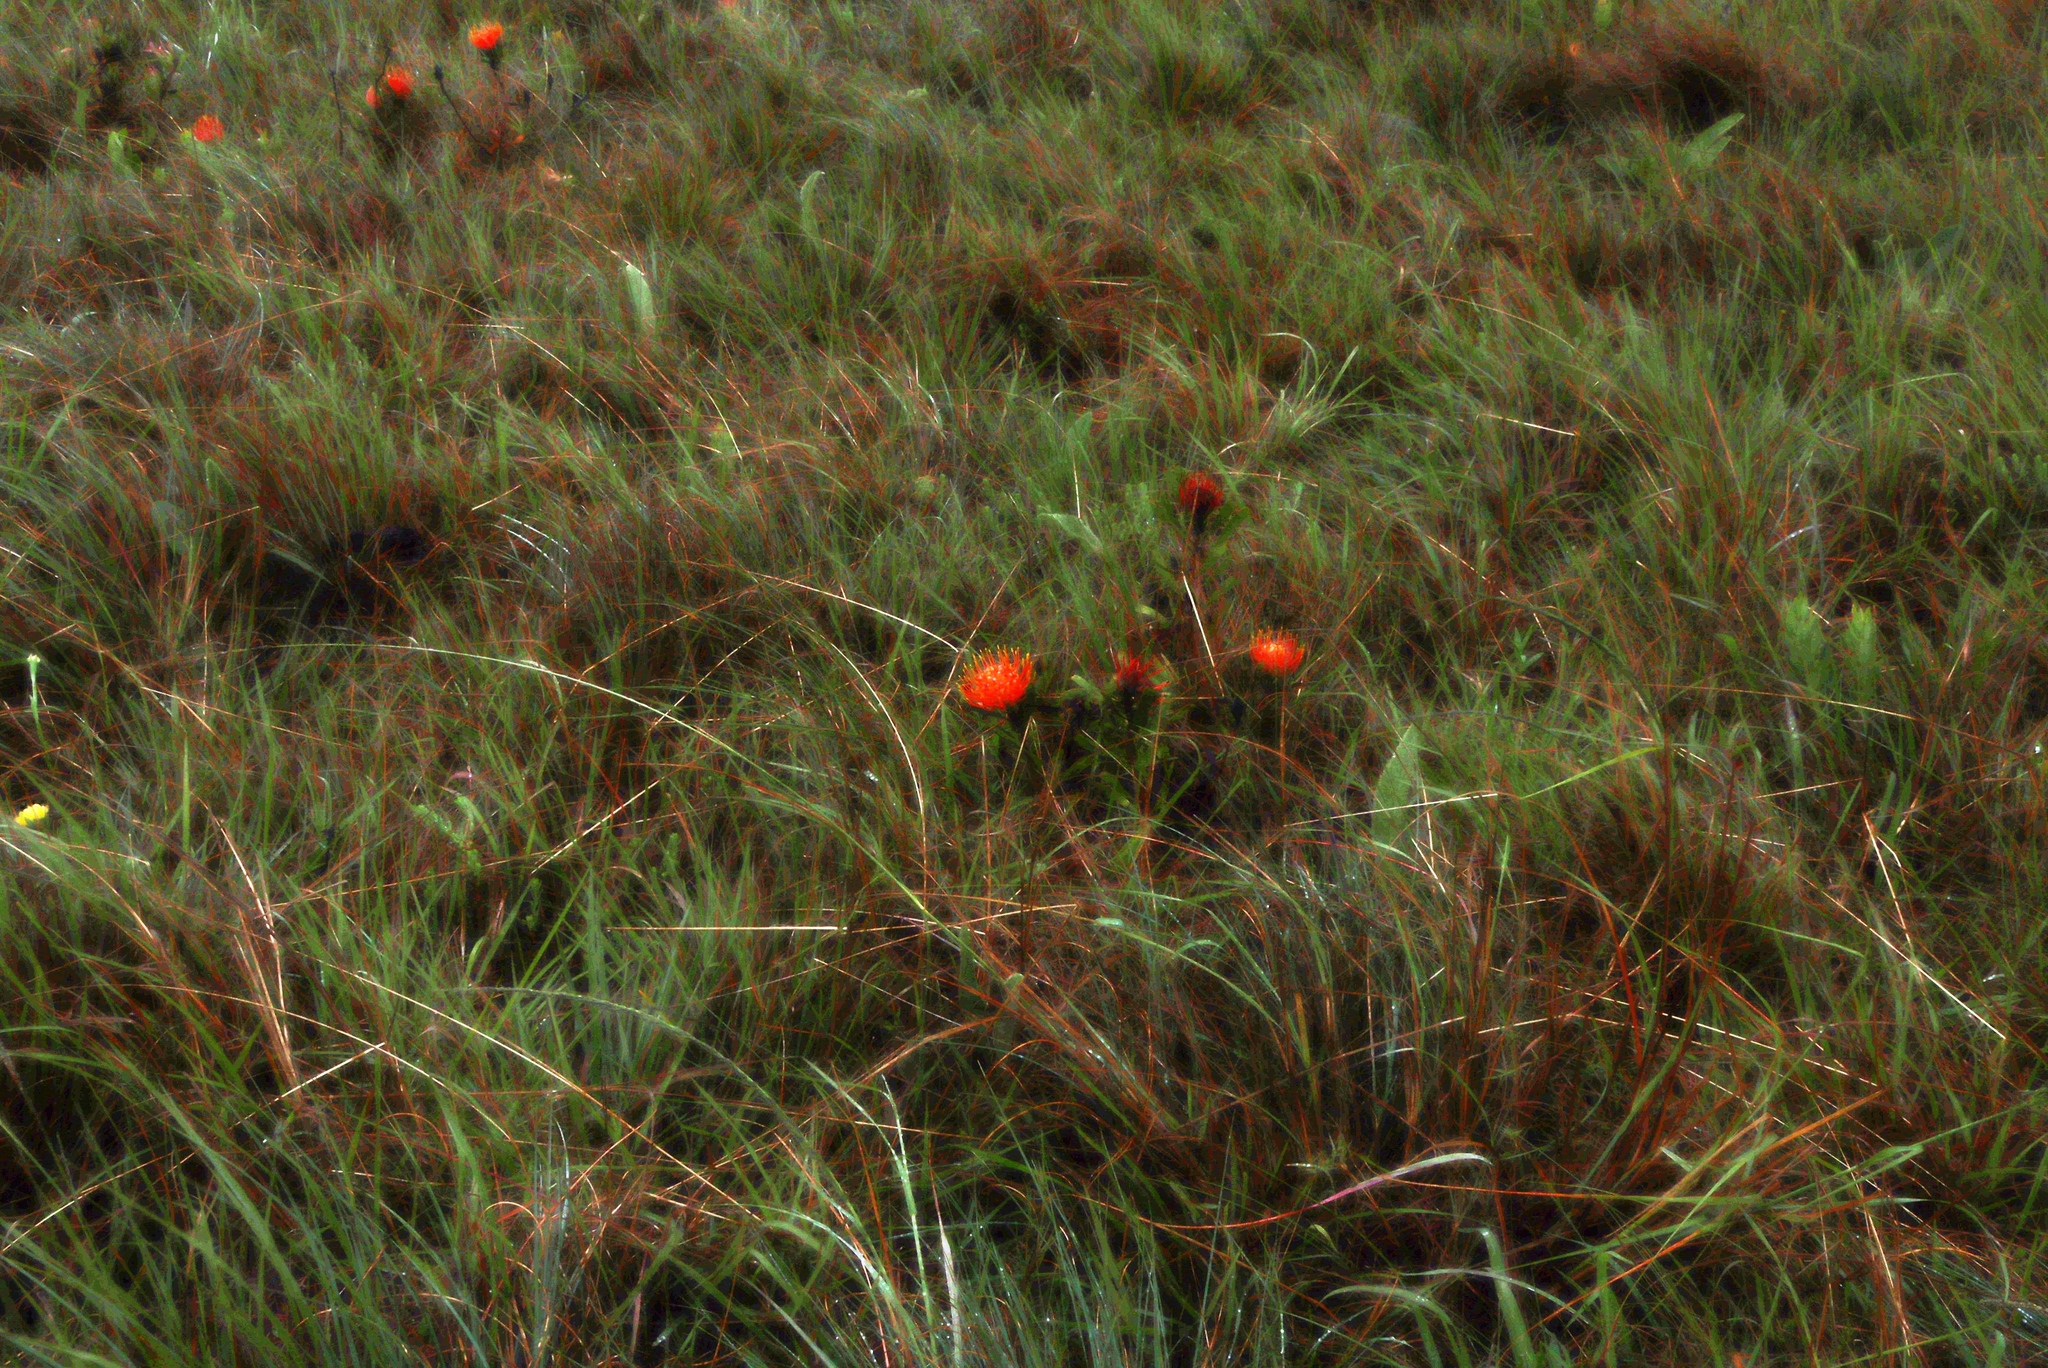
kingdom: Plantae
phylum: Tracheophyta
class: Magnoliopsida
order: Proteales
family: Proteaceae
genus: Leucospermum
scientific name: Leucospermum gerrardii
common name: Soapstone pincushion
